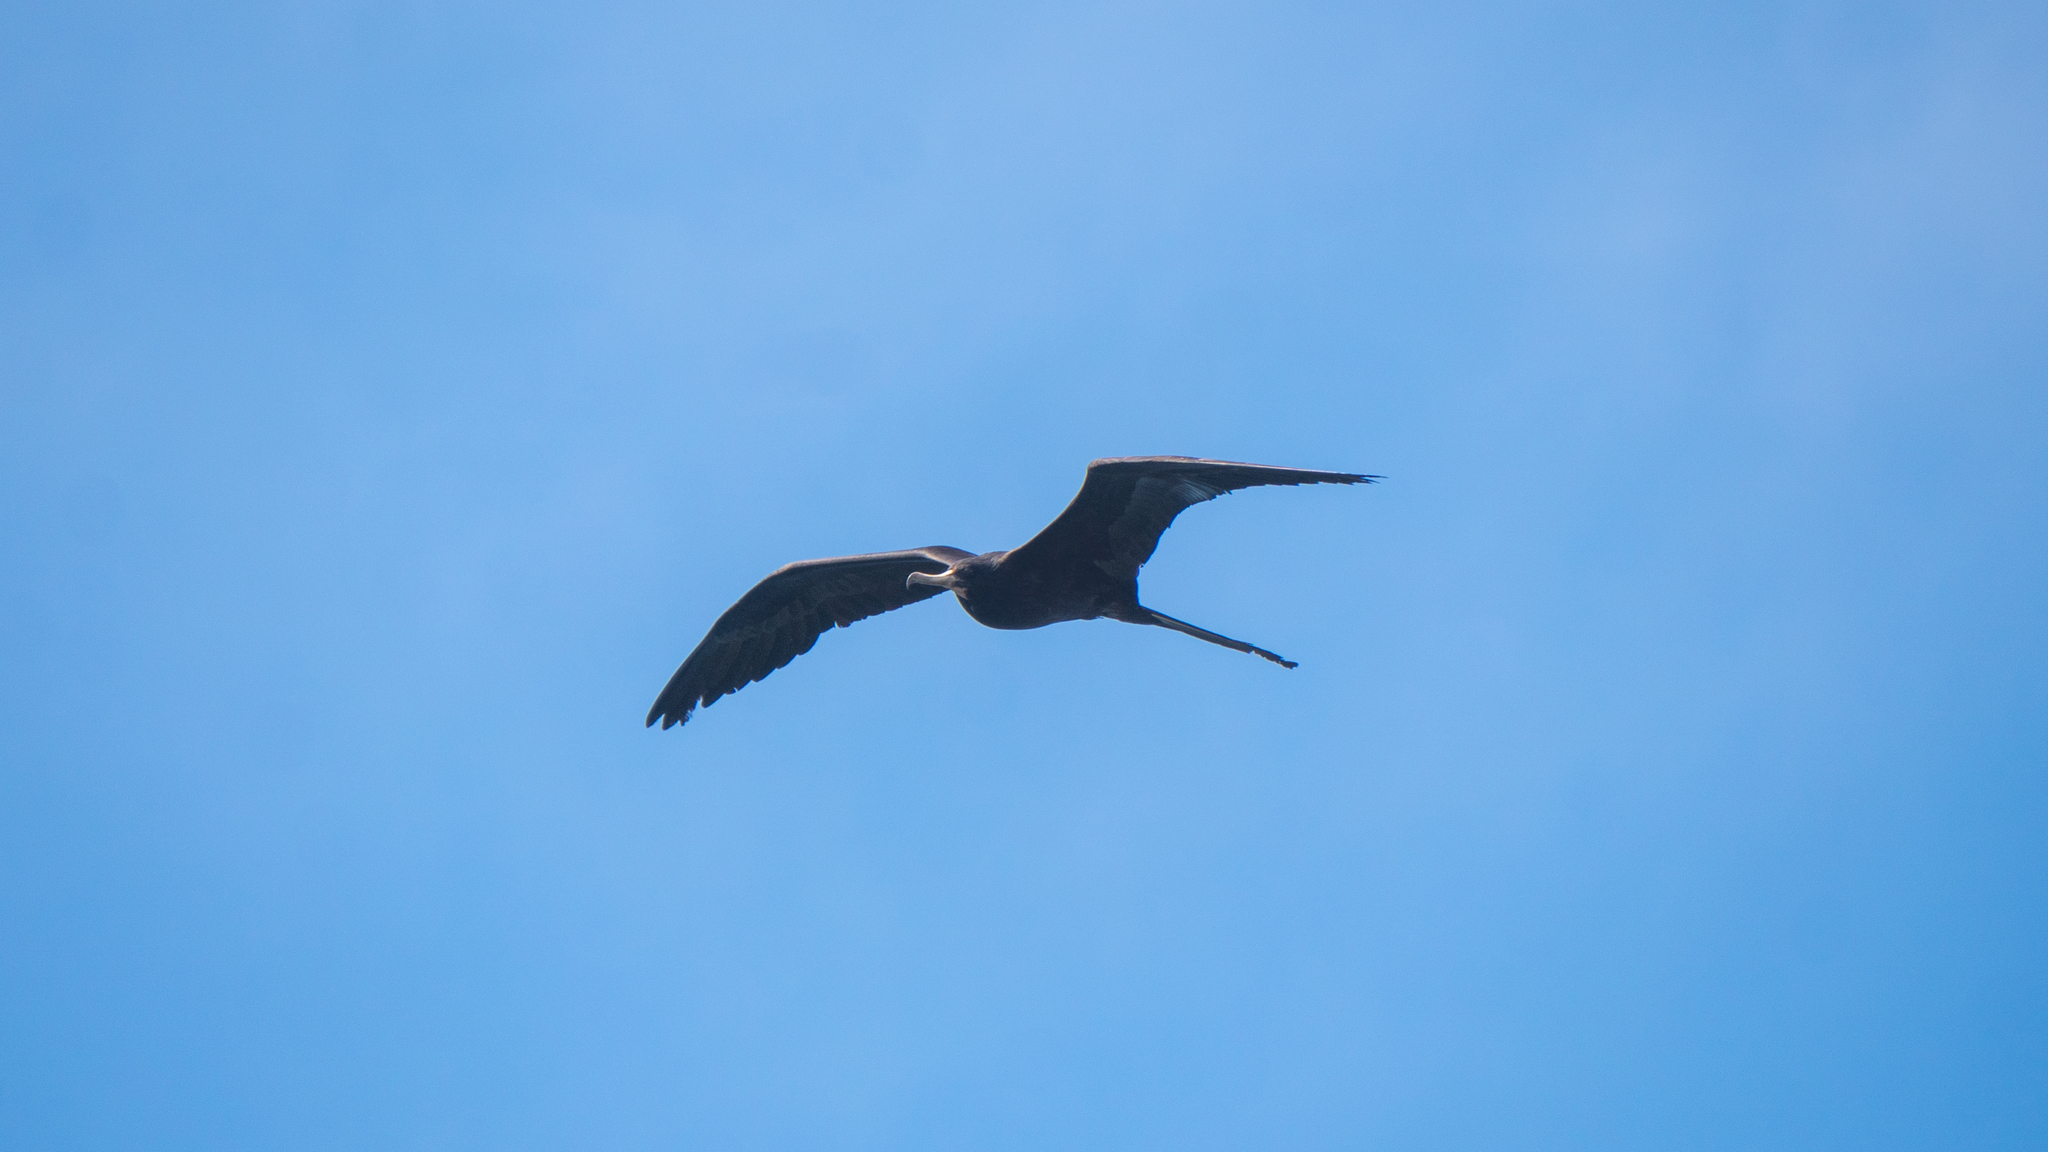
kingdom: Animalia
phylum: Chordata
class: Aves
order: Suliformes
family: Fregatidae
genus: Fregata
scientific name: Fregata magnificens
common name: Magnificent frigatebird
